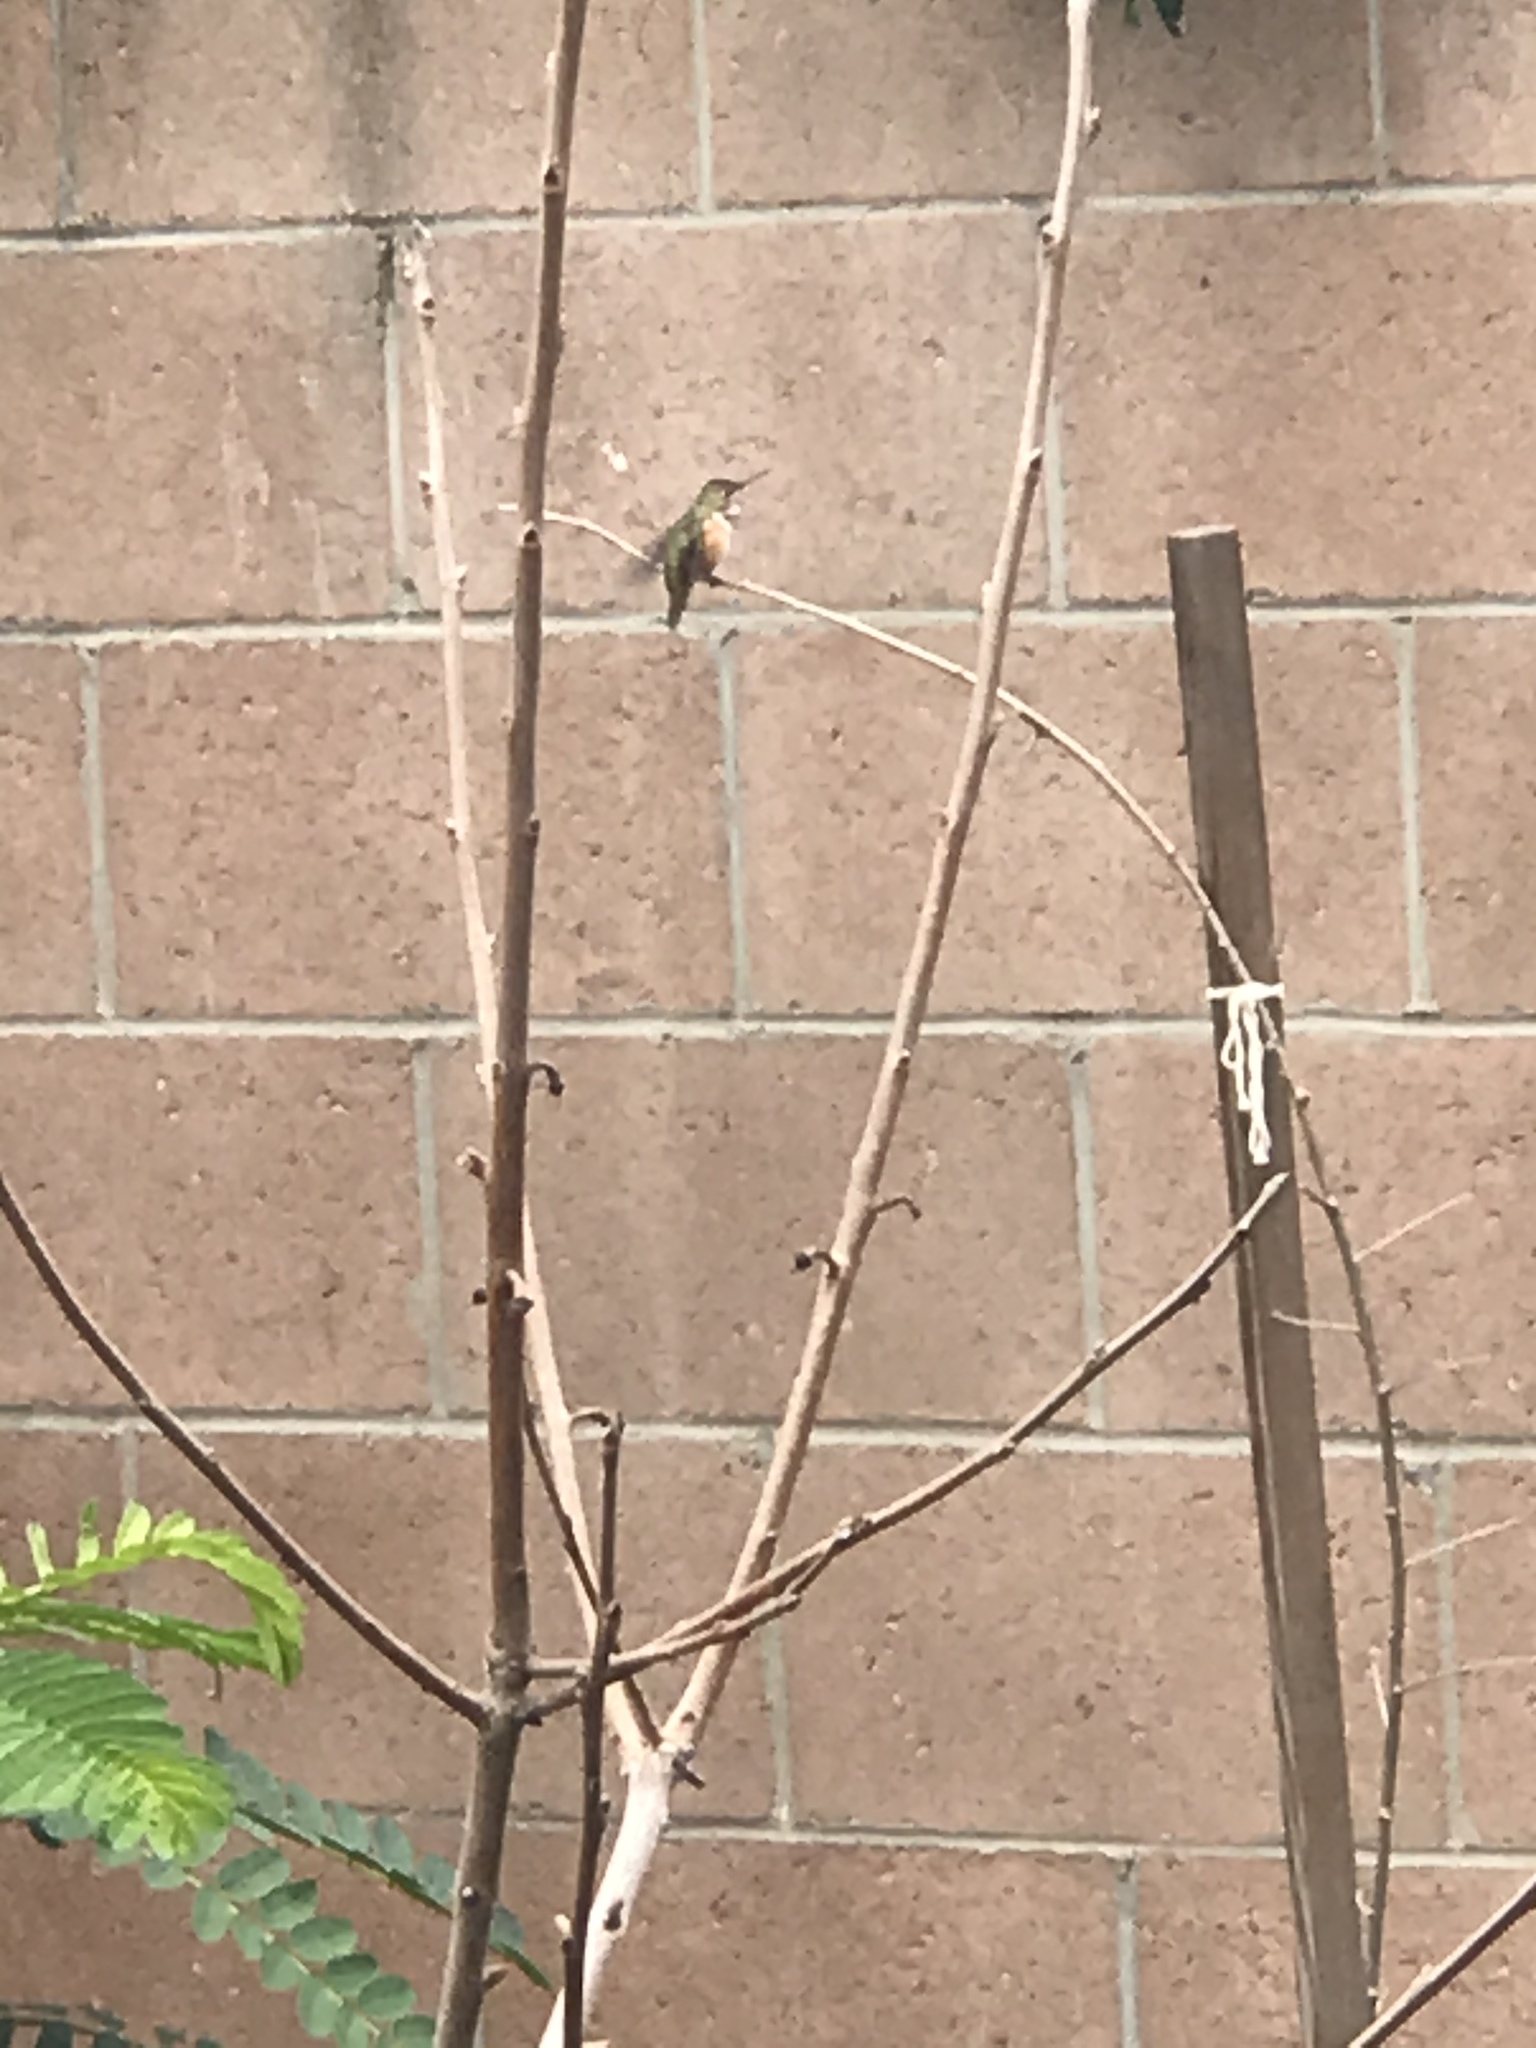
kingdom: Animalia
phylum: Chordata
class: Aves
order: Apodiformes
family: Trochilidae
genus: Selasphorus
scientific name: Selasphorus sasin
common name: Allen's hummingbird
